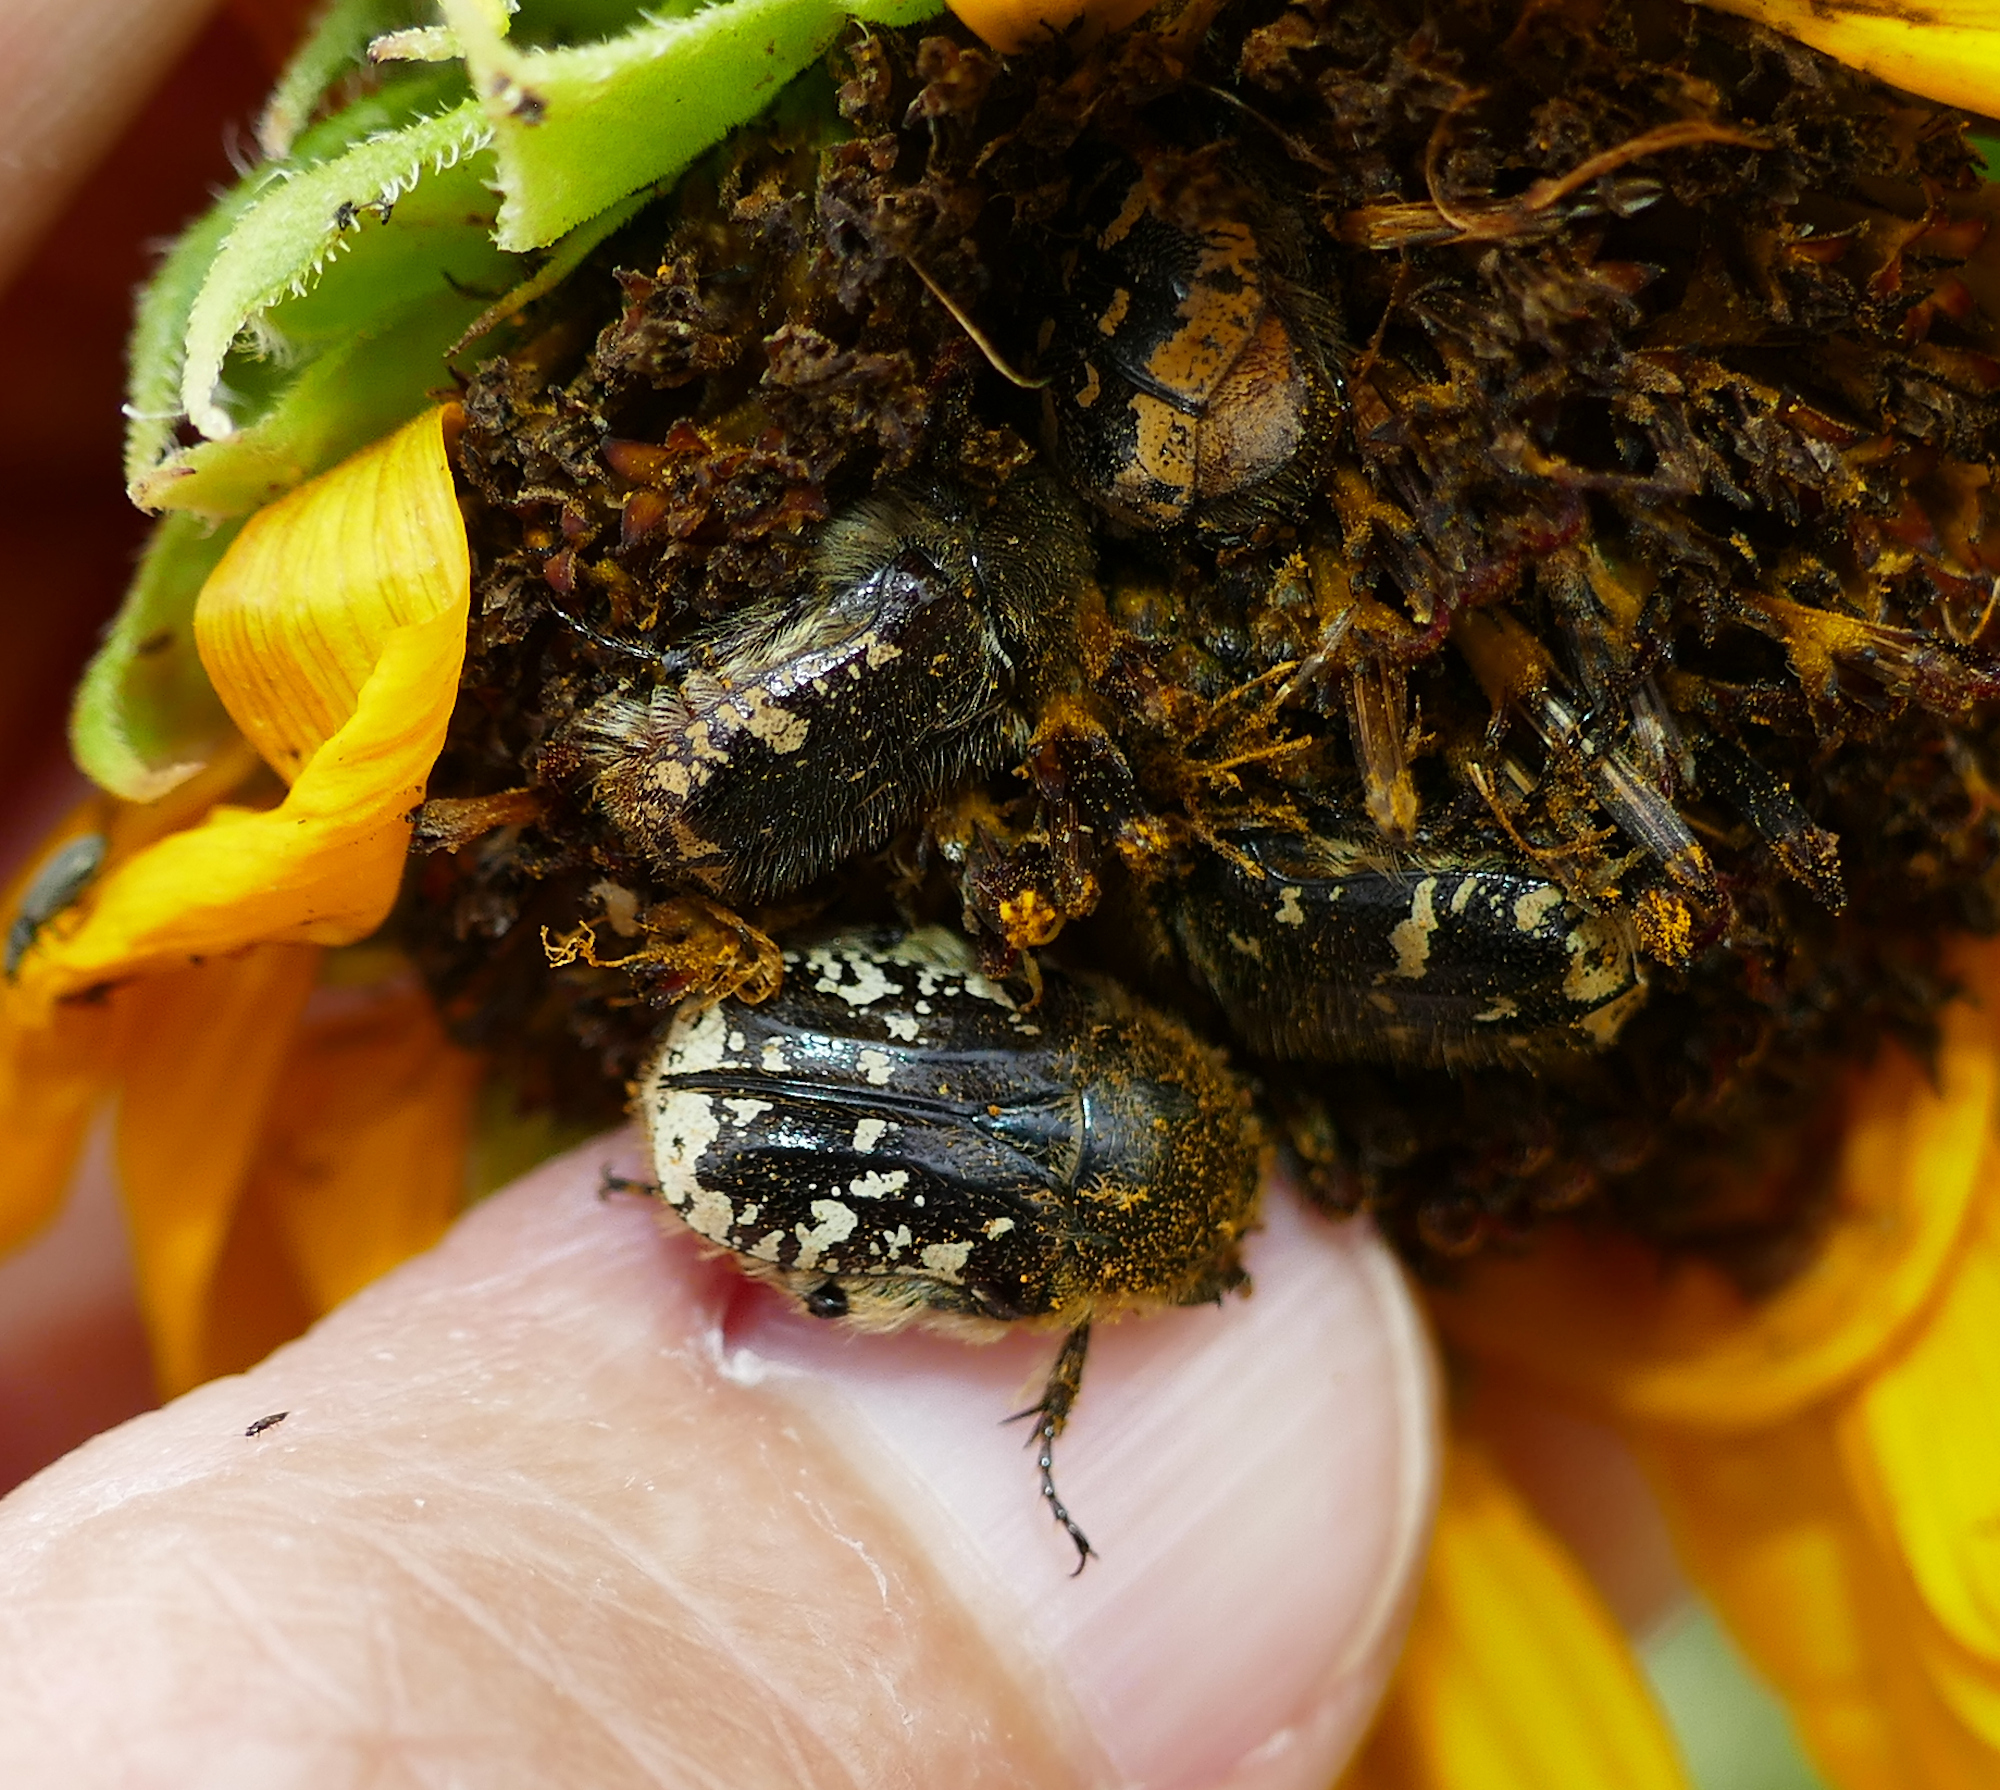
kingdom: Animalia
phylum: Arthropoda
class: Insecta
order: Coleoptera
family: Scarabaeidae
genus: Euphoria
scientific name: Euphoria sonorae
